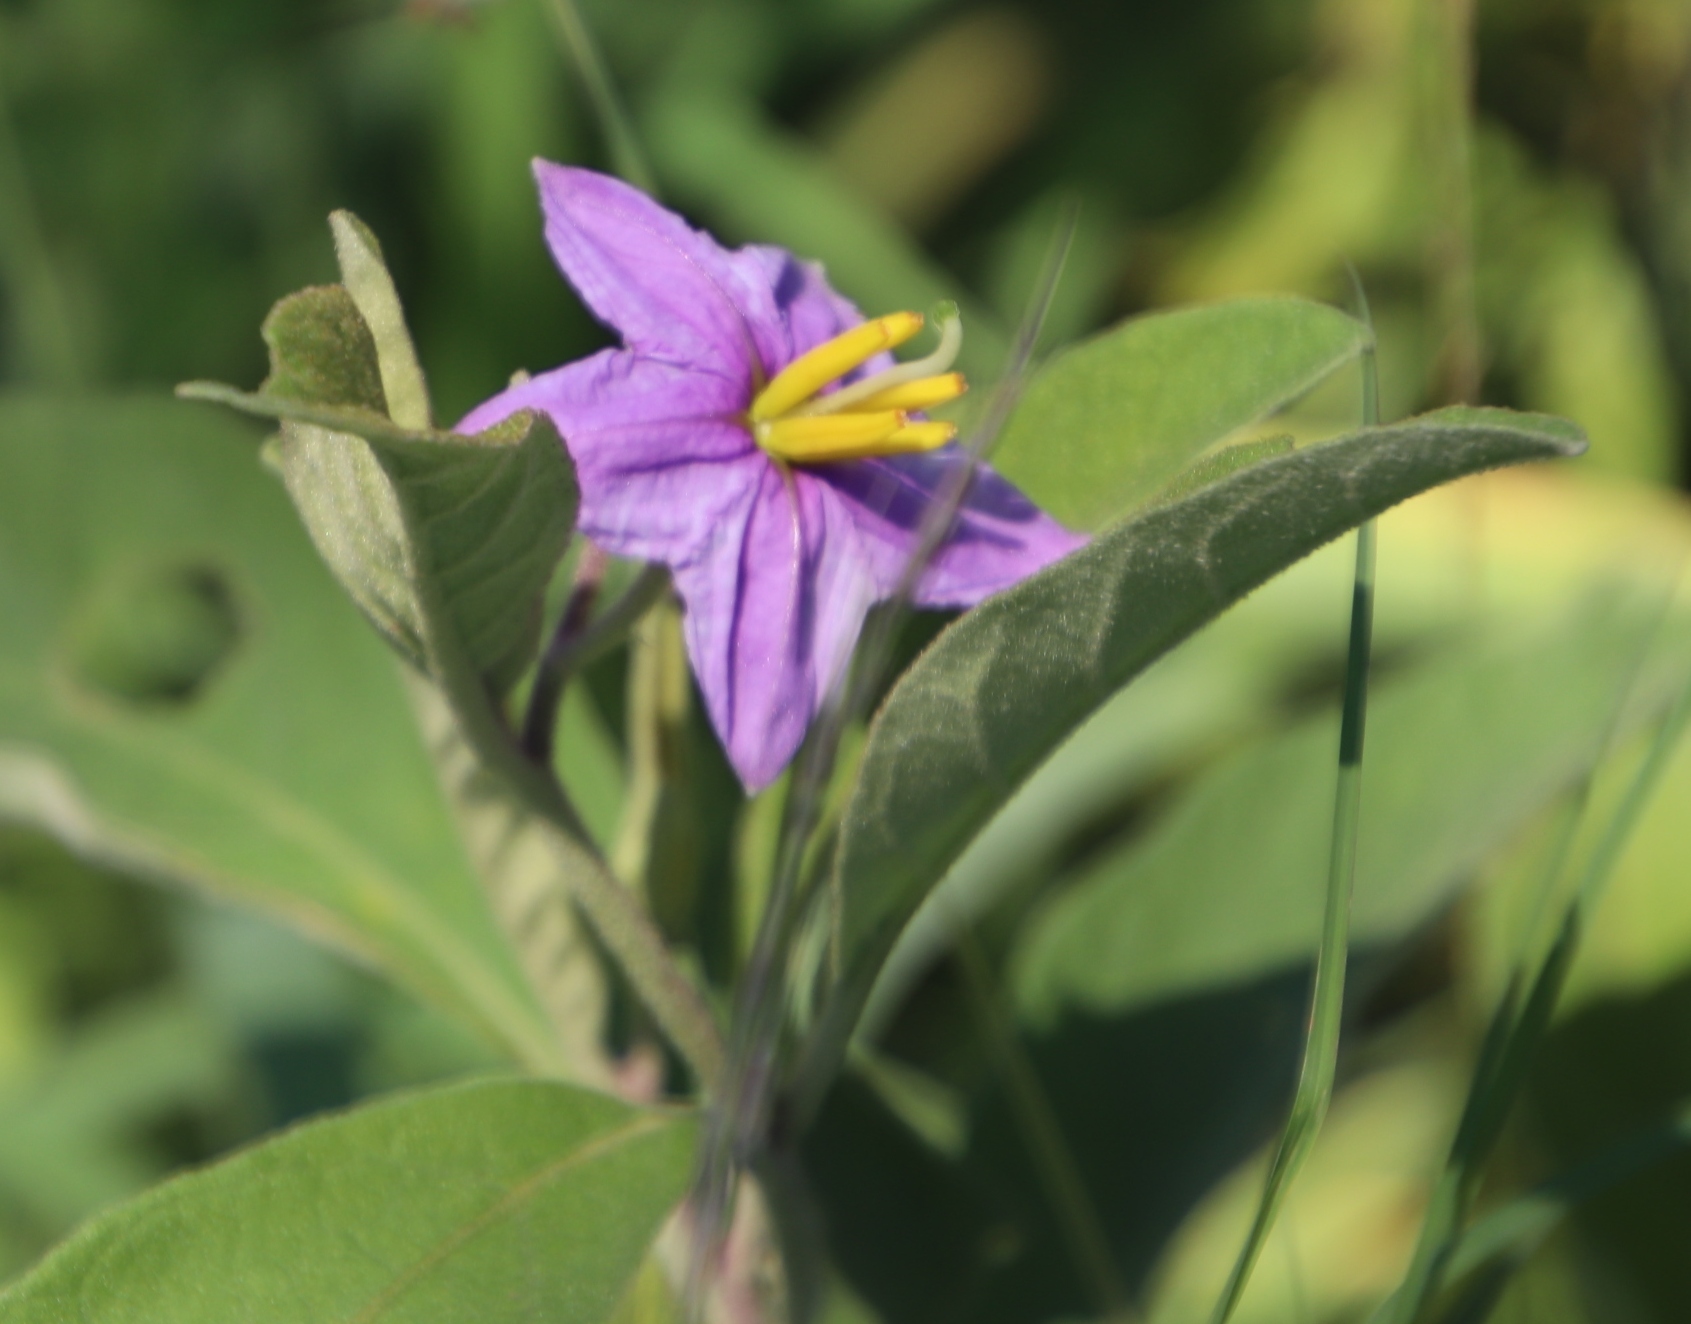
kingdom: Plantae
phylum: Tracheophyta
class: Magnoliopsida
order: Solanales
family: Solanaceae
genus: Solanum
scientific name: Solanum campylacanthum
